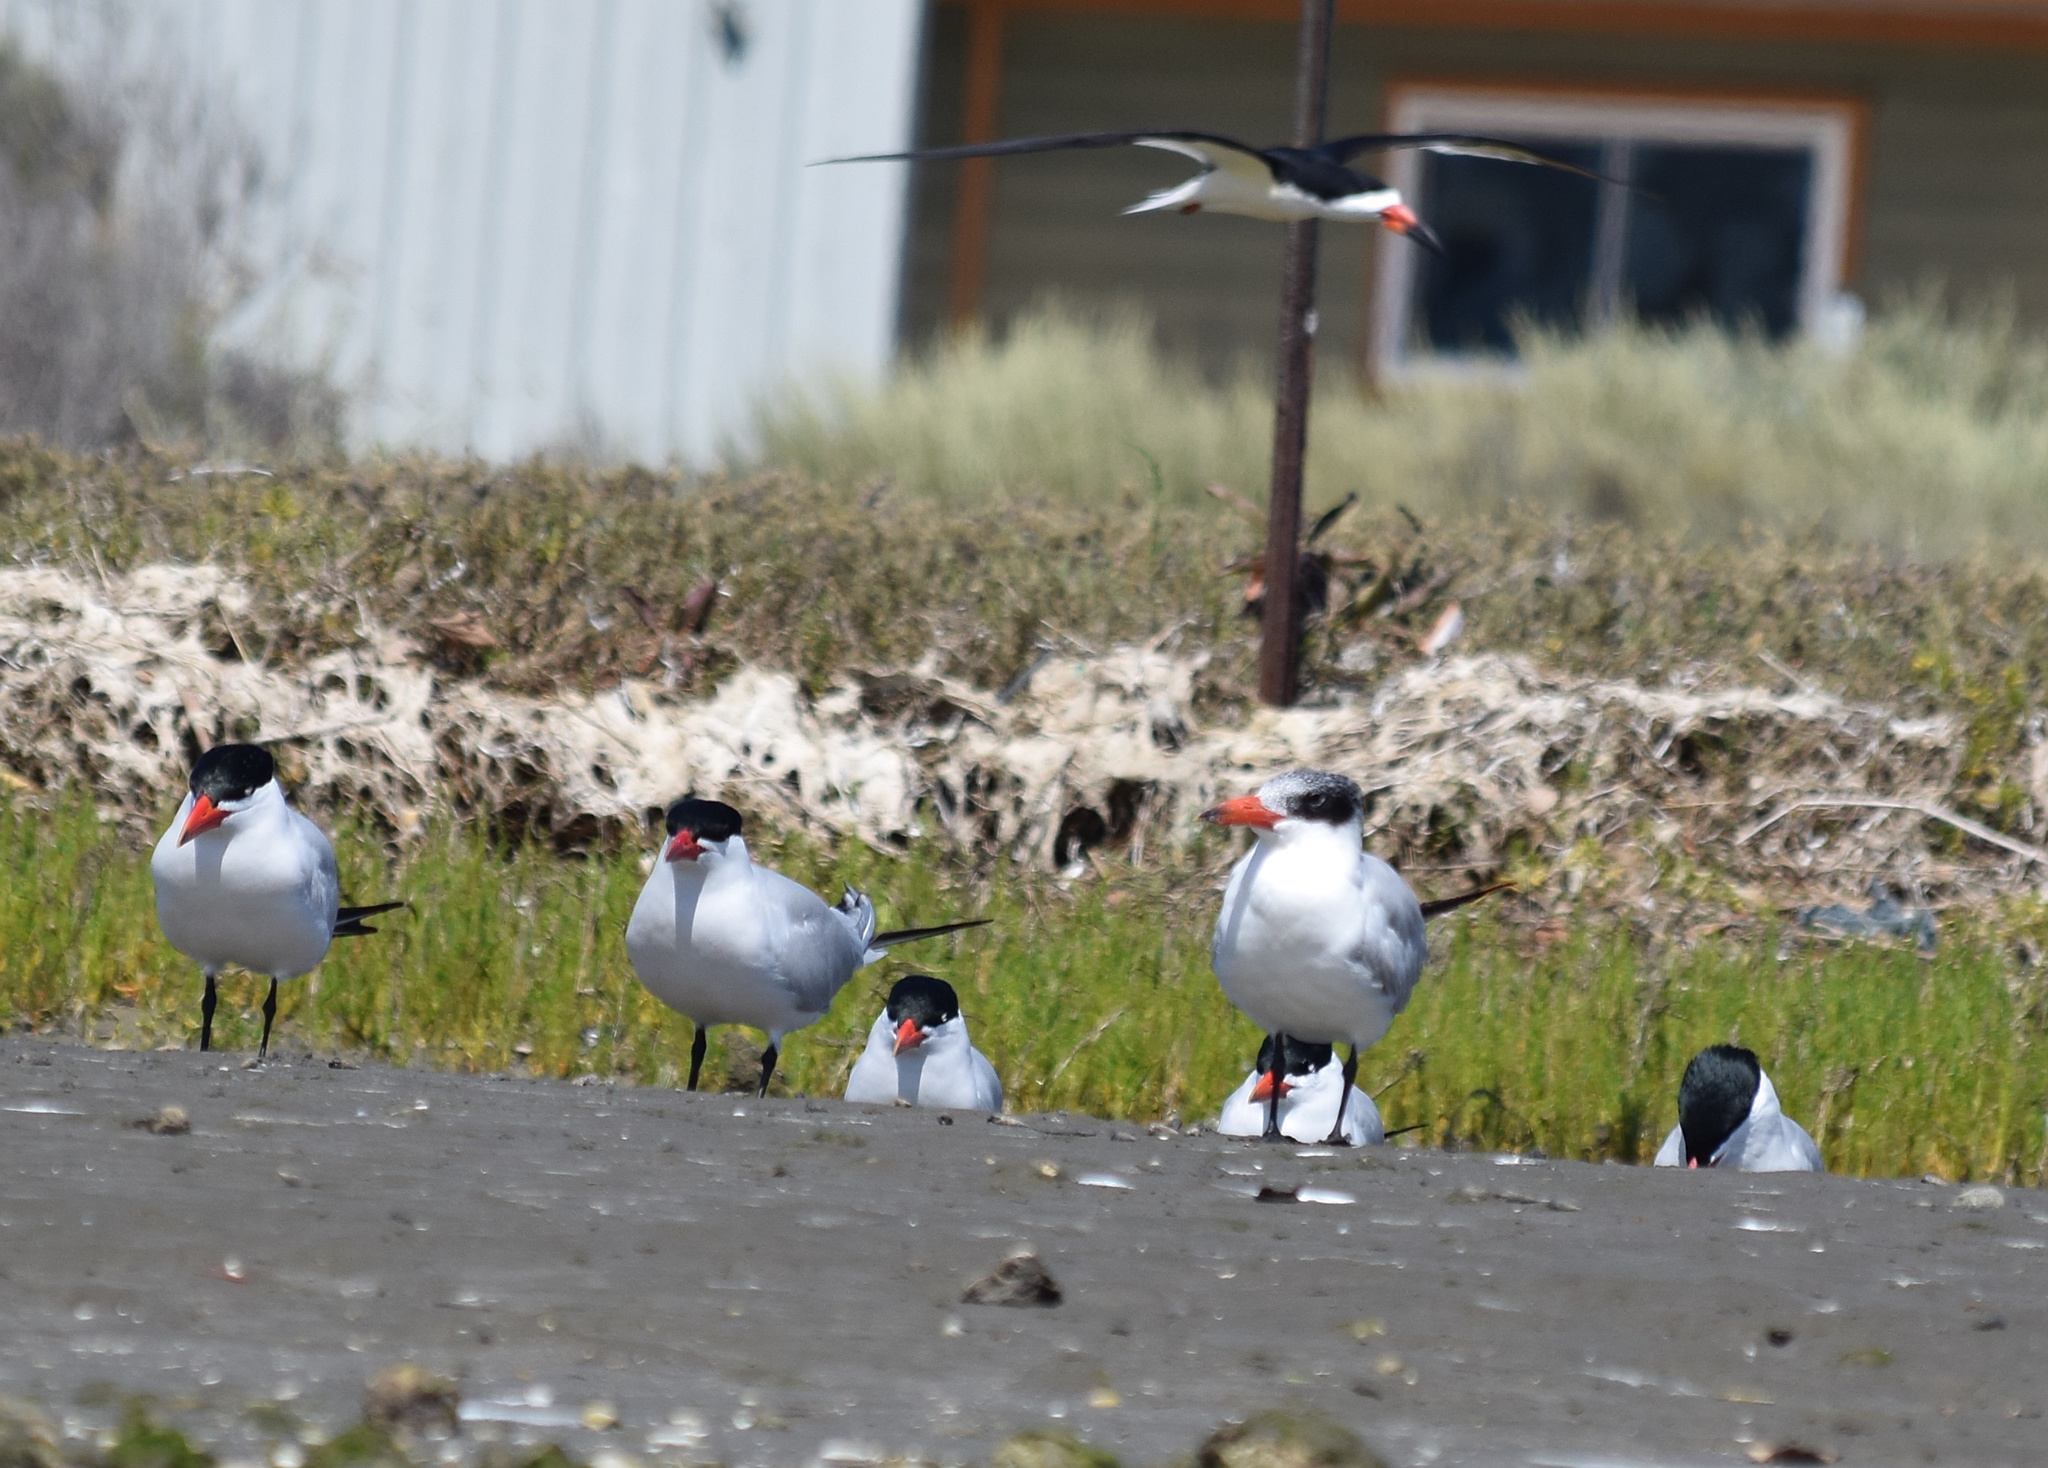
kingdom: Animalia
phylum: Chordata
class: Aves
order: Charadriiformes
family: Laridae
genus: Hydroprogne
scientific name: Hydroprogne caspia
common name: Caspian tern
